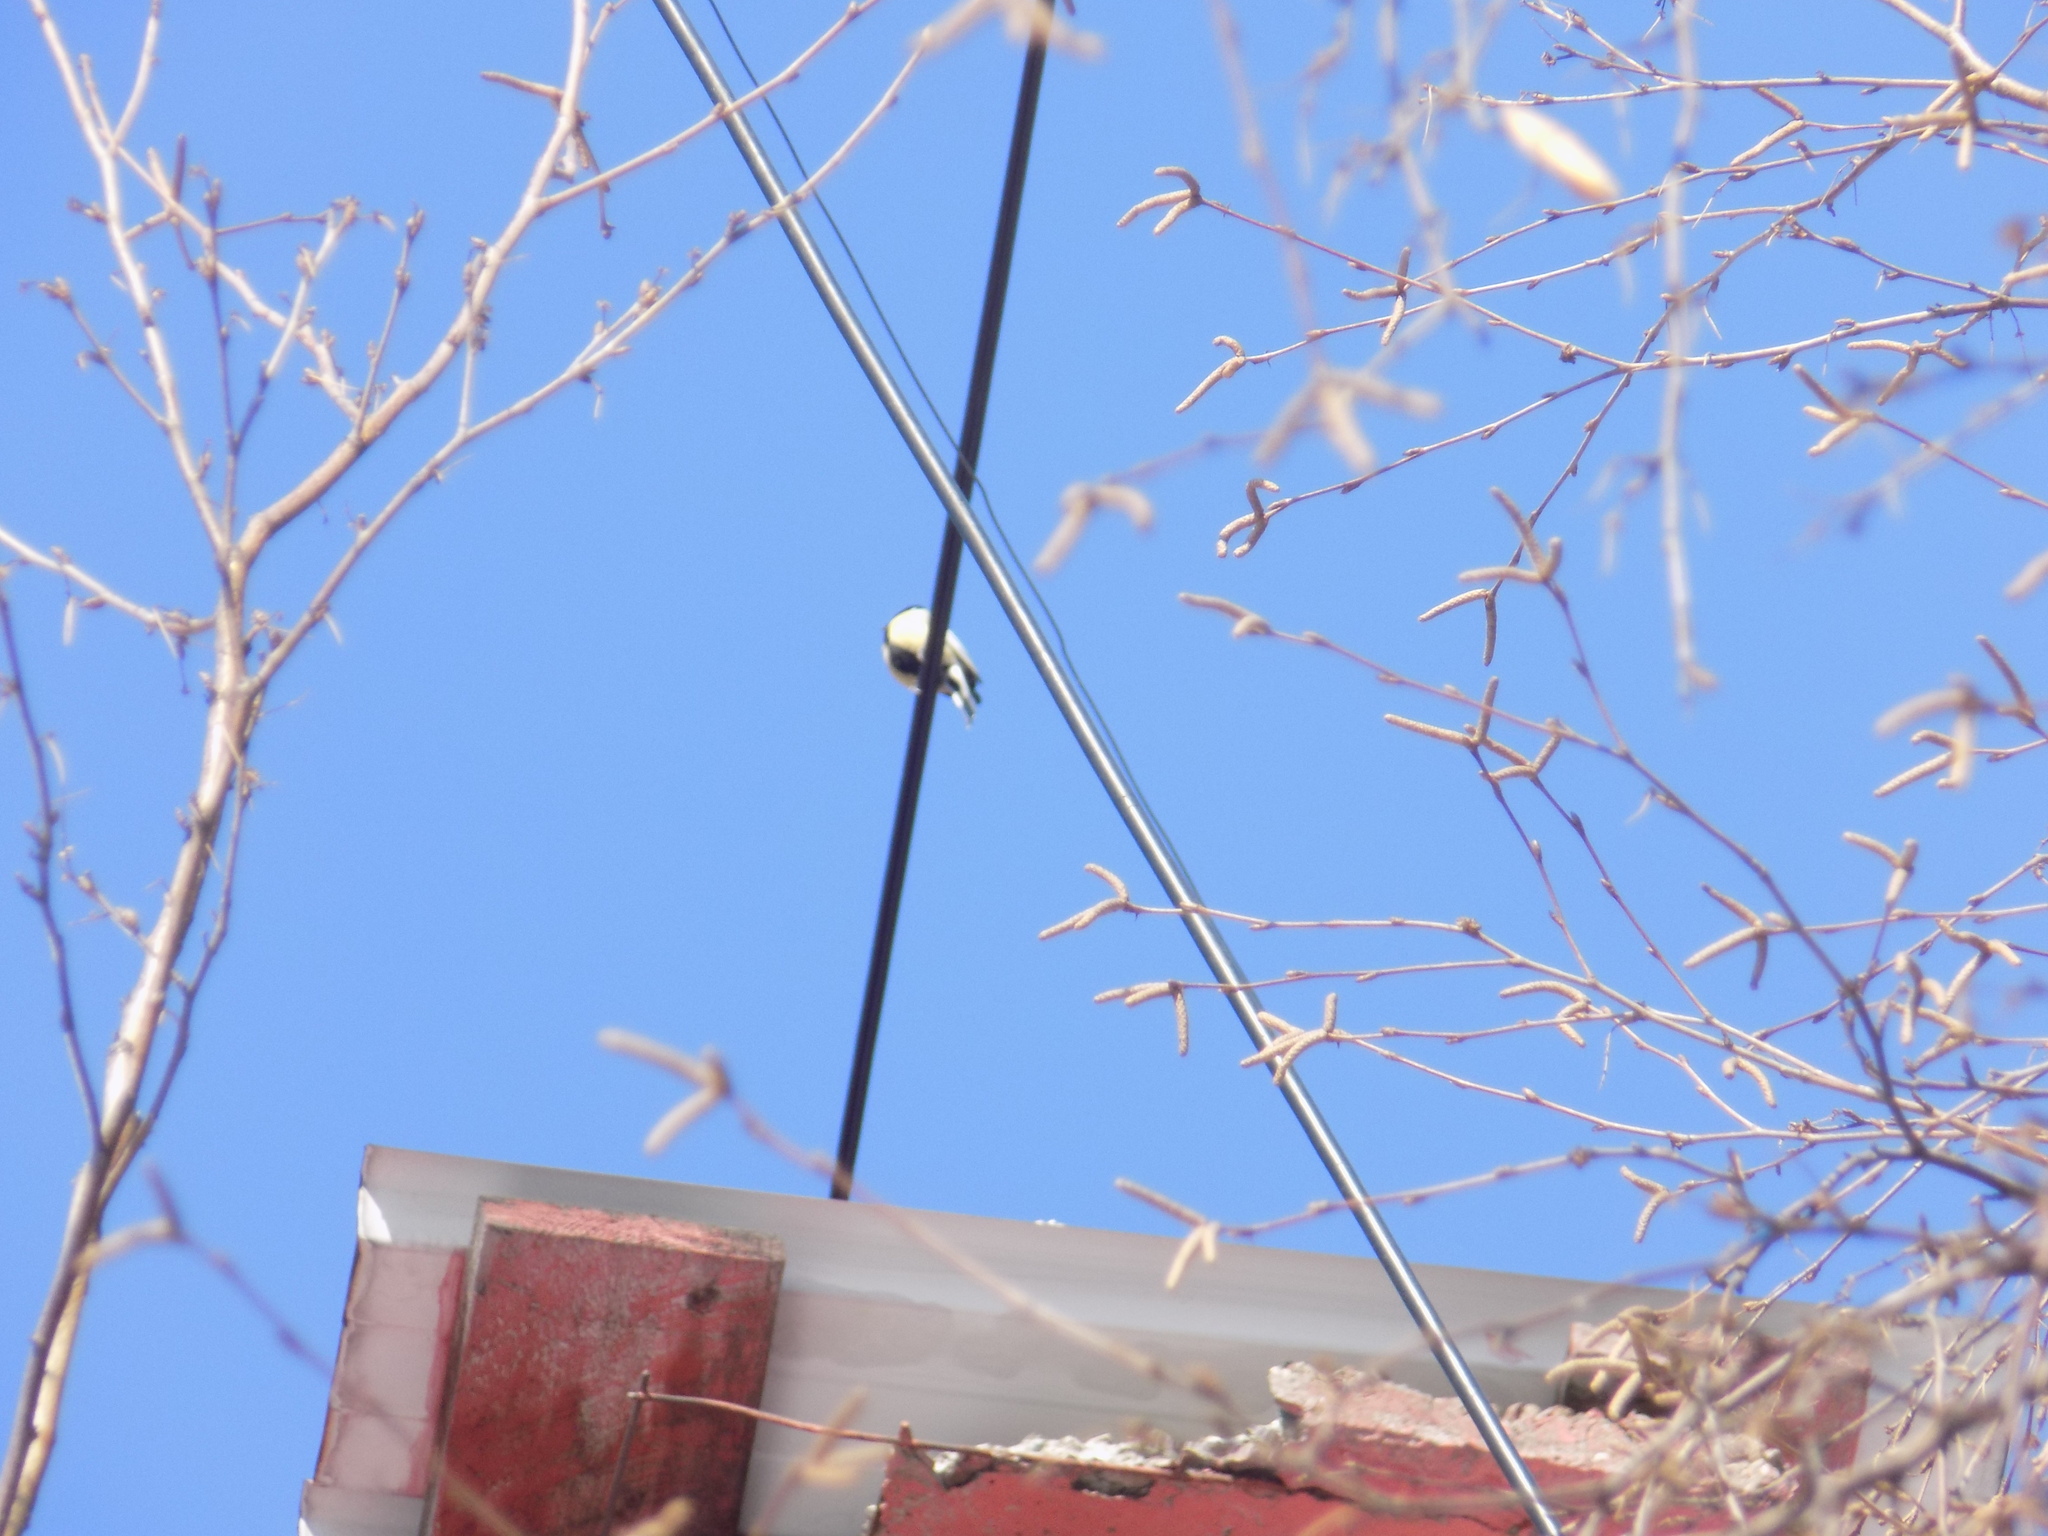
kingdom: Animalia
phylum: Chordata
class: Aves
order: Passeriformes
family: Paridae
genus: Parus
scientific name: Parus major
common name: Great tit
